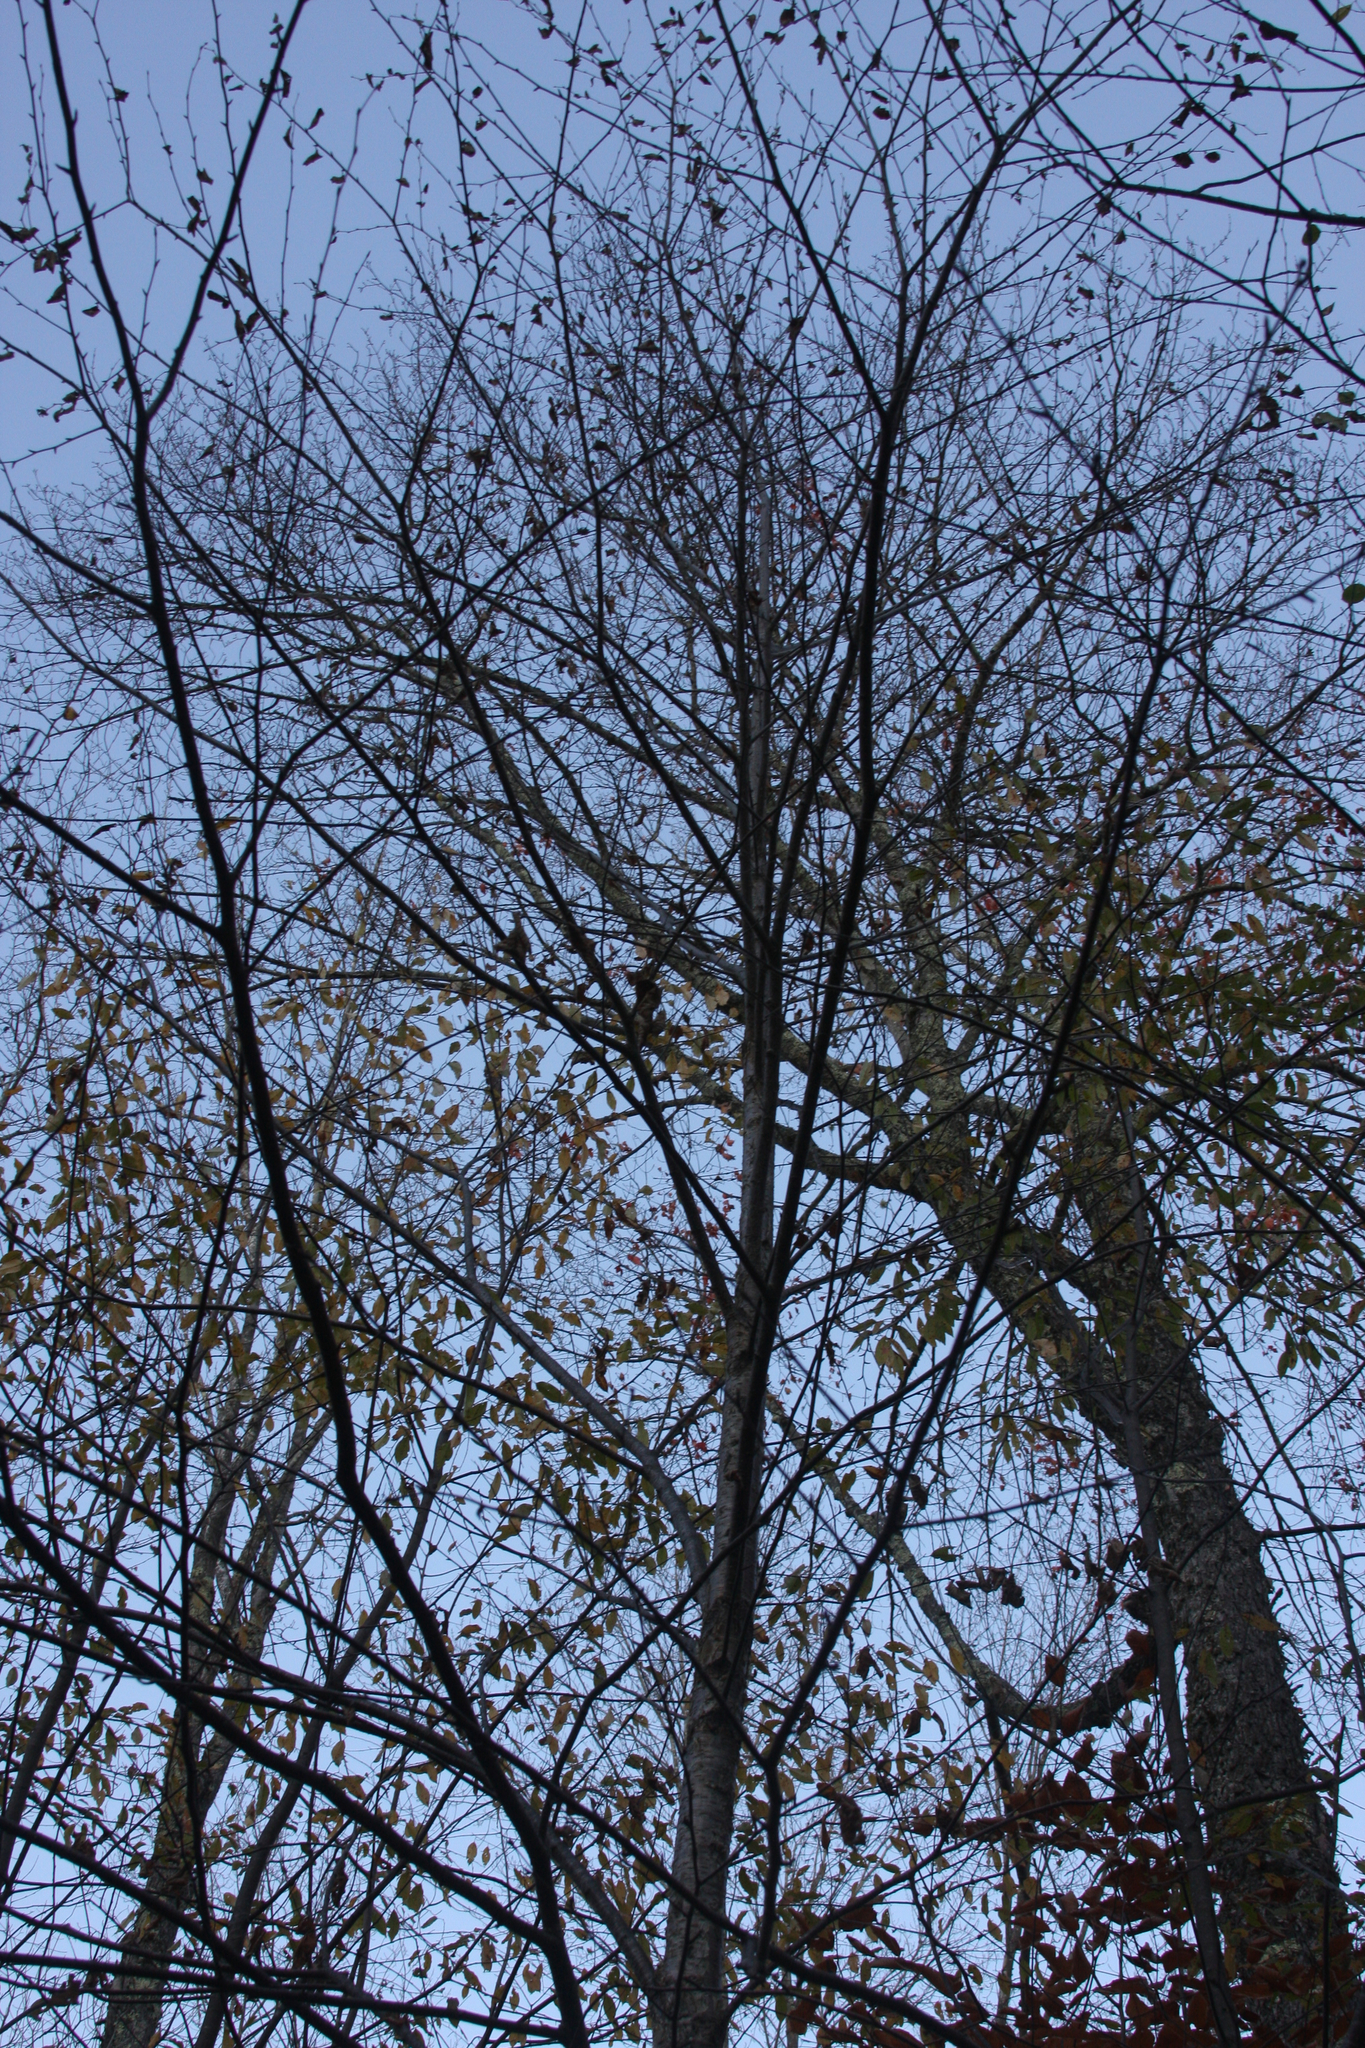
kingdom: Plantae
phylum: Tracheophyta
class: Magnoliopsida
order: Fagales
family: Betulaceae
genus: Betula
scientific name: Betula alleghaniensis
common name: Yellow birch
